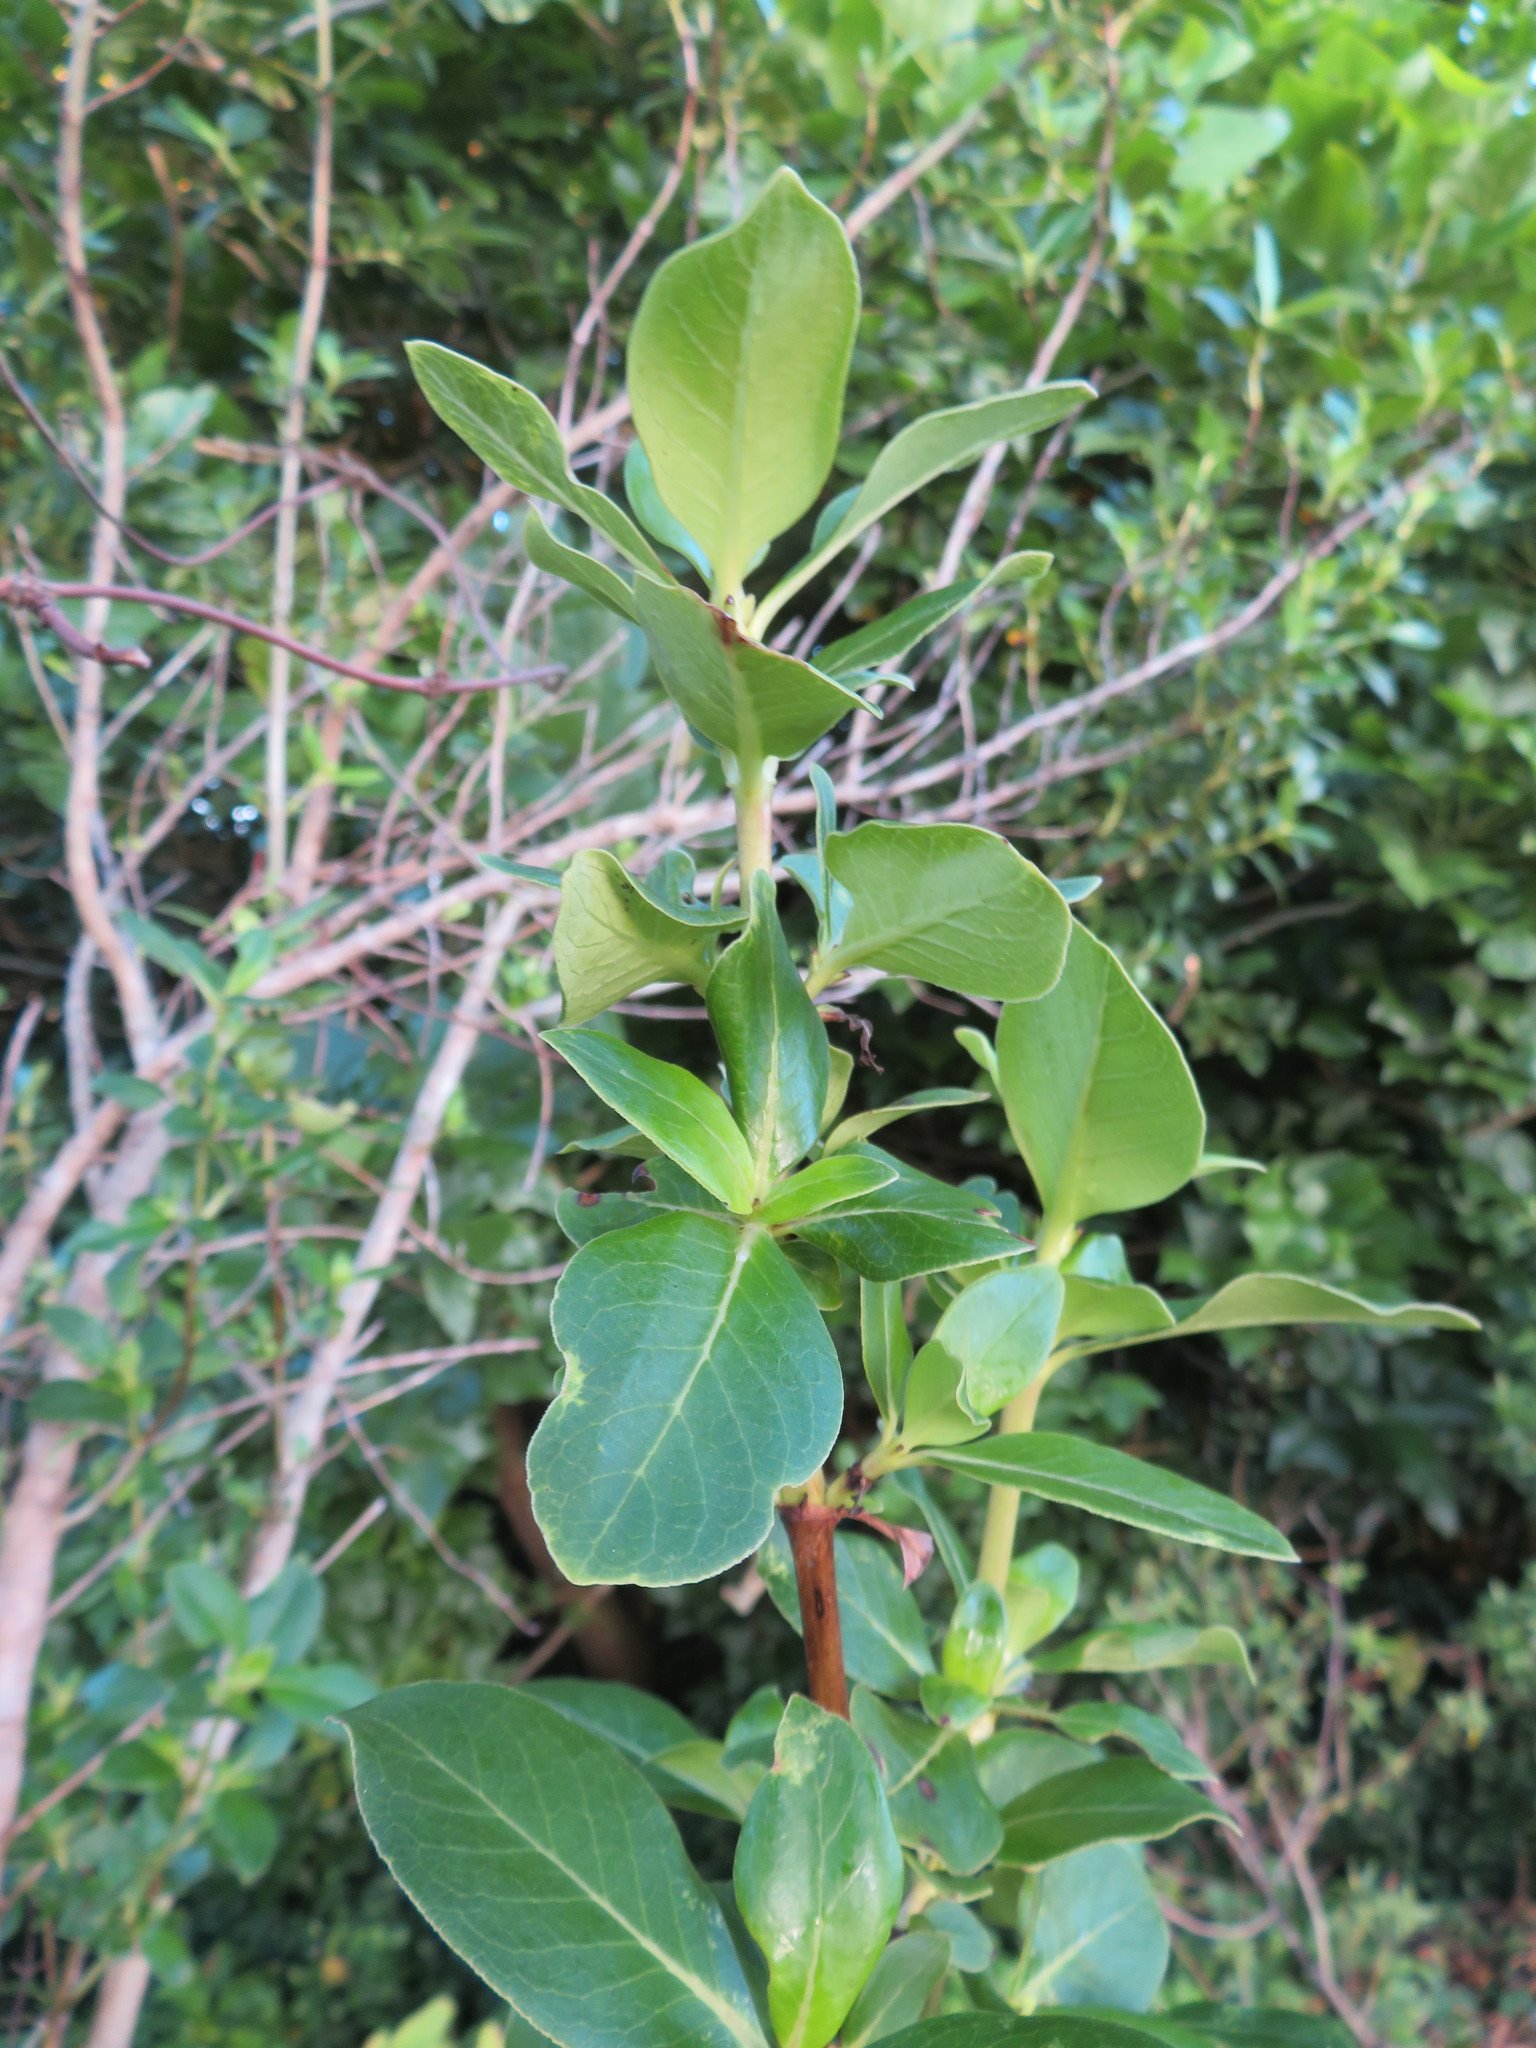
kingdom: Plantae
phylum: Tracheophyta
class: Magnoliopsida
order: Gentianales
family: Rubiaceae
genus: Coprosma
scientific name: Coprosma robusta
